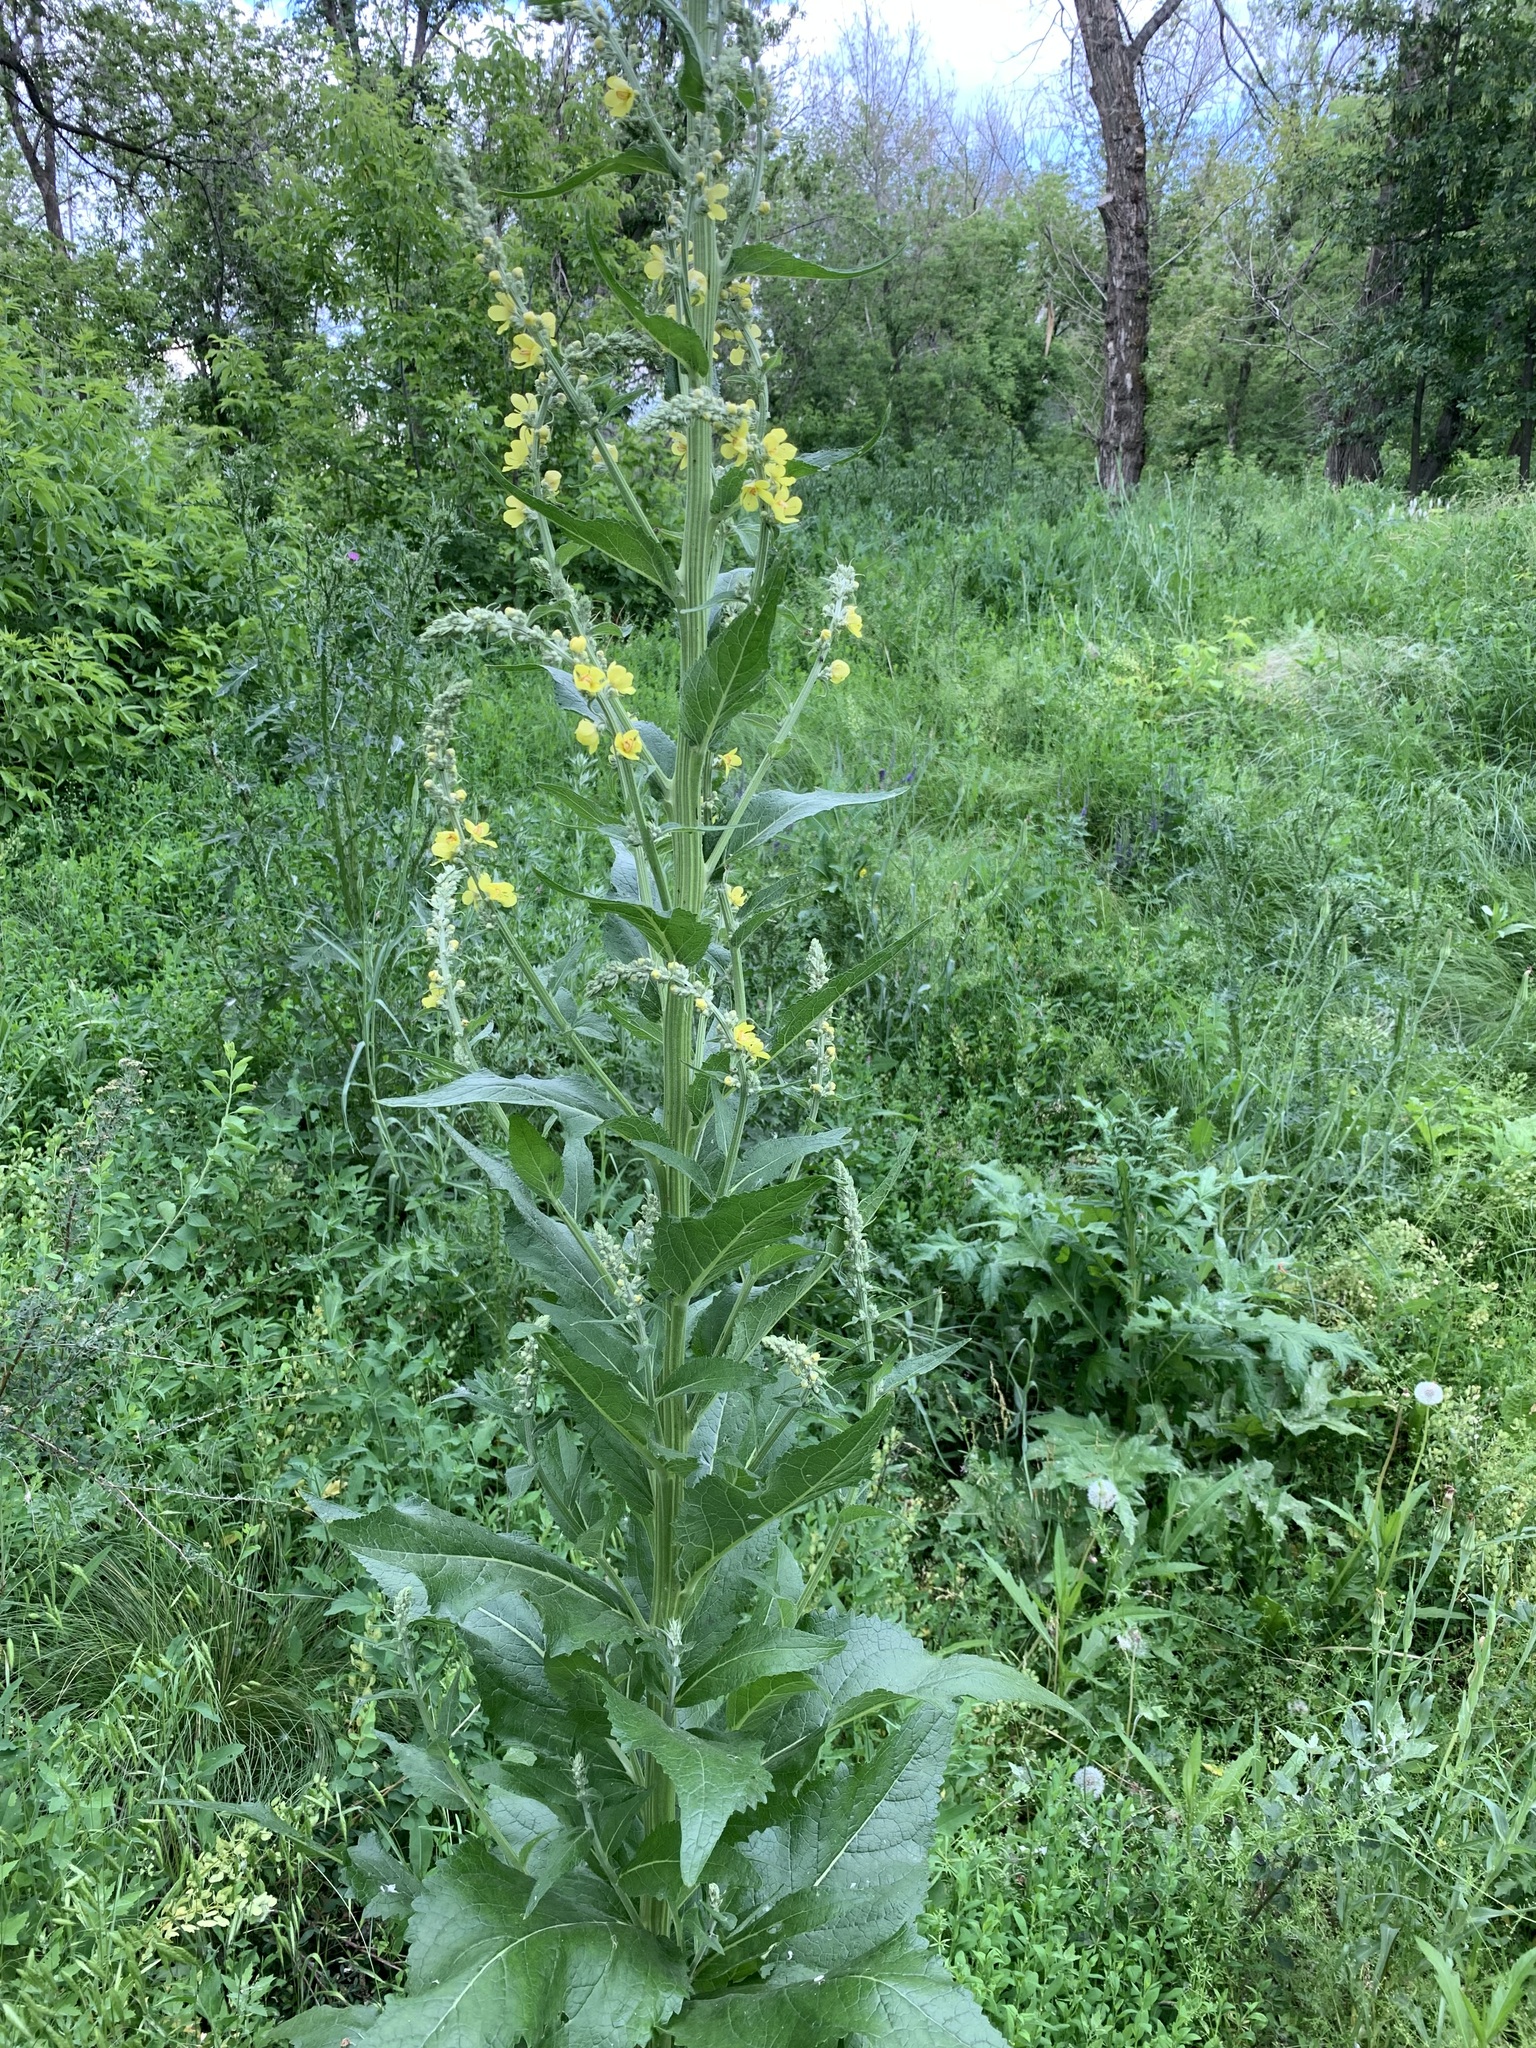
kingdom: Plantae
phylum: Tracheophyta
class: Magnoliopsida
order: Lamiales
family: Scrophulariaceae
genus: Verbascum
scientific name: Verbascum lychnitis
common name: White mullein
